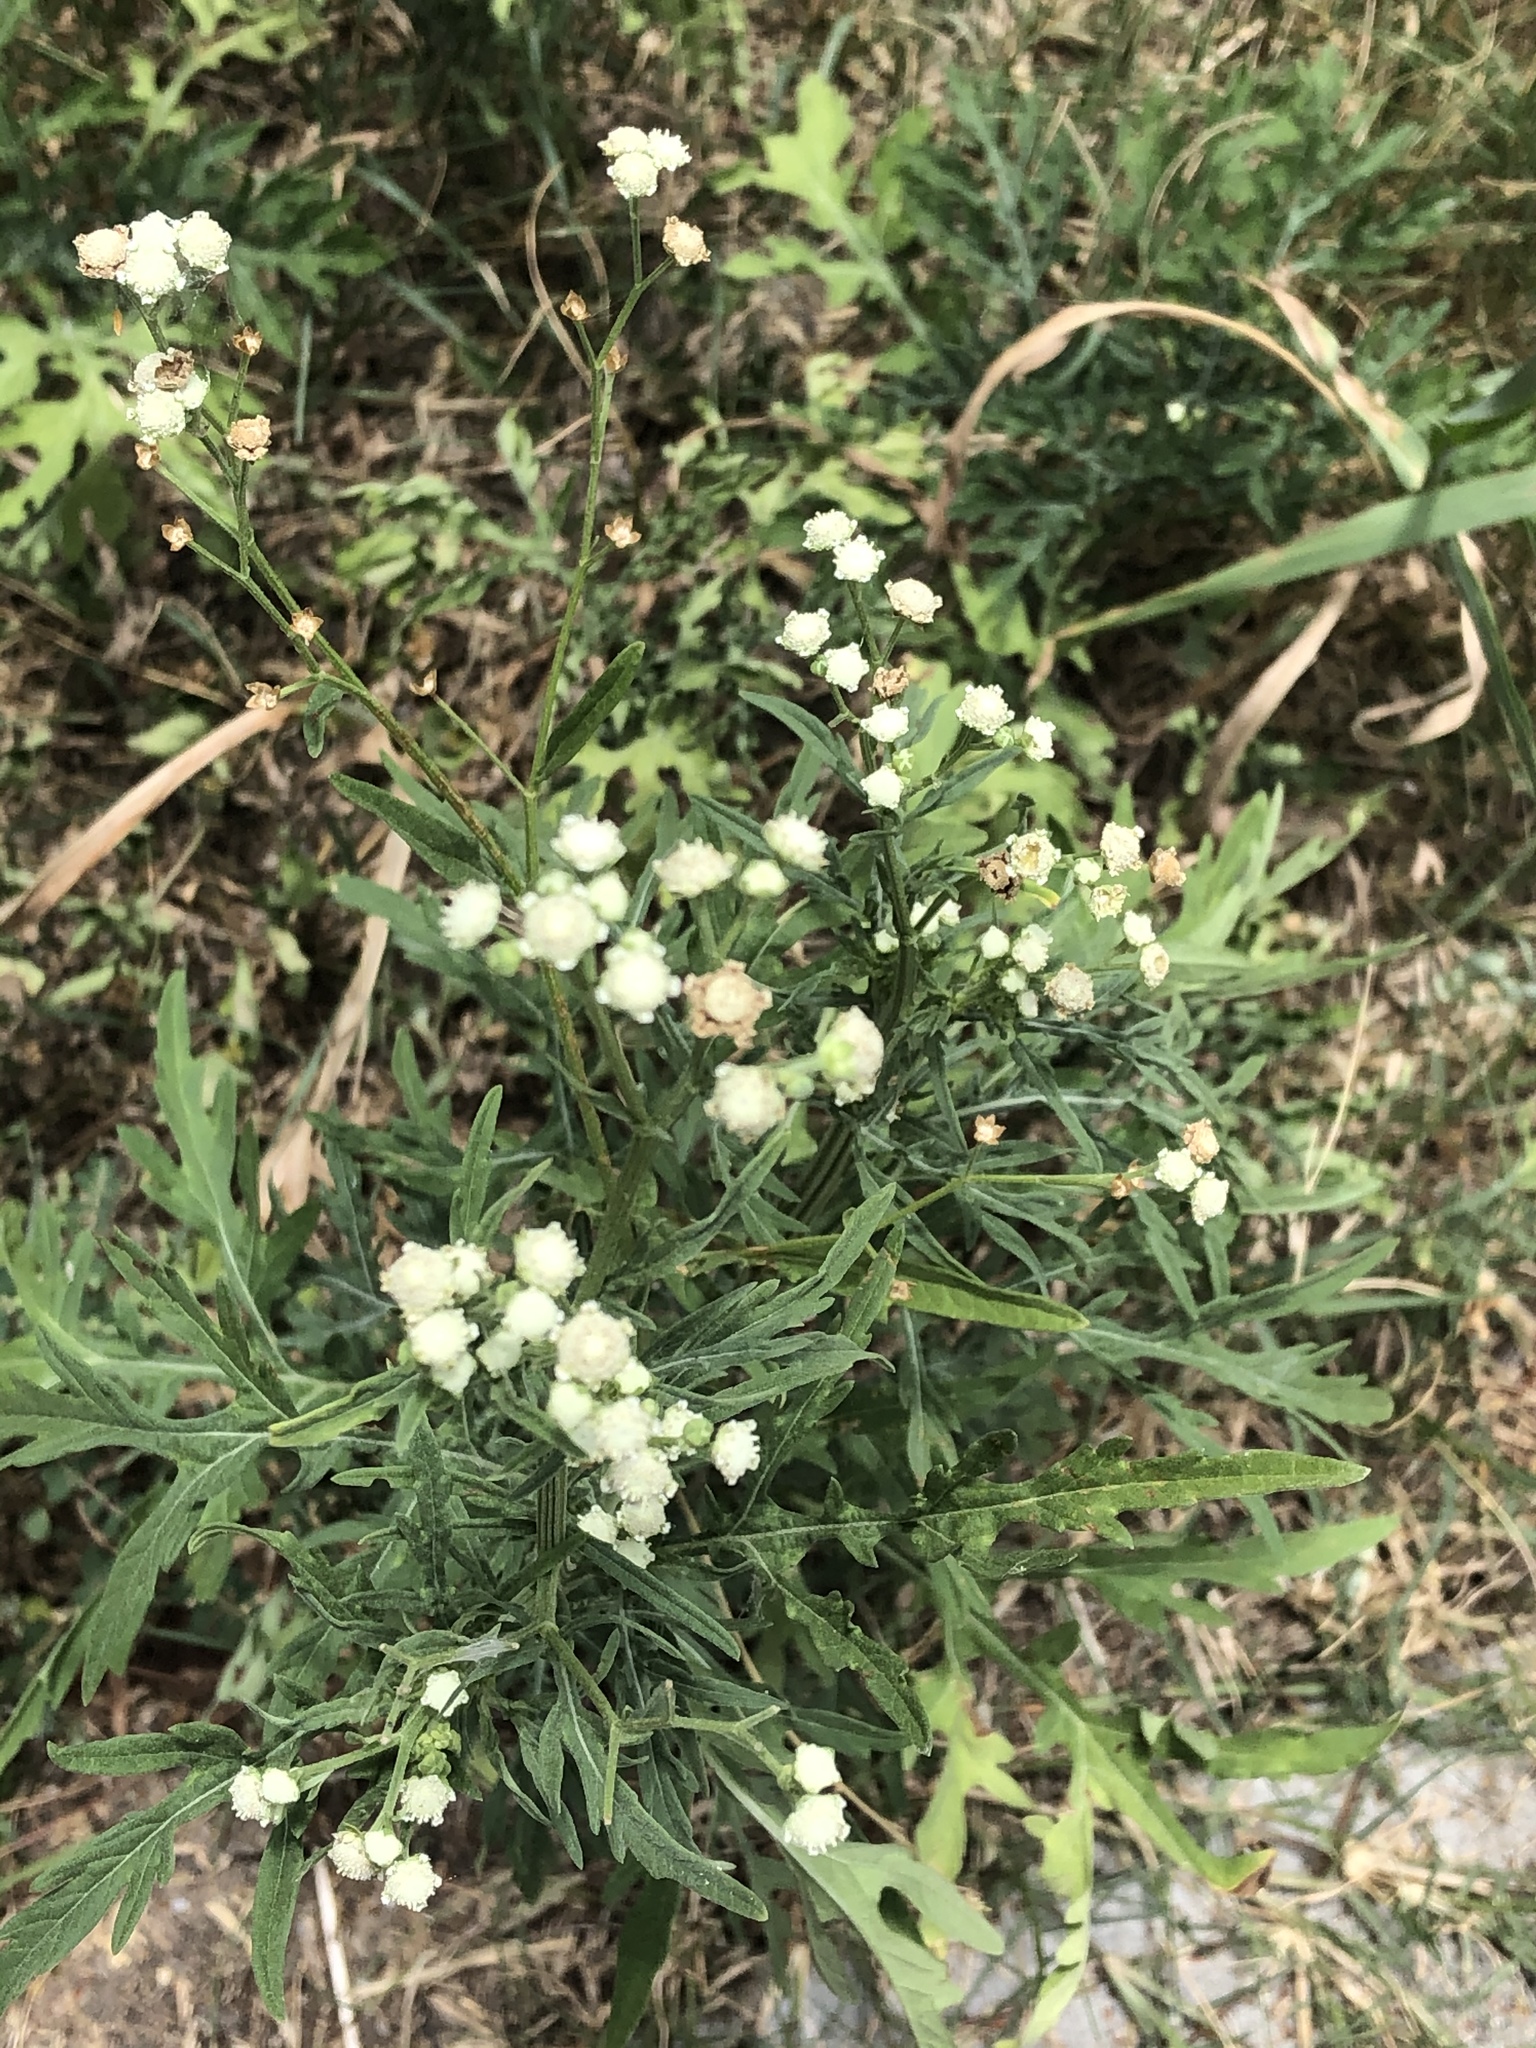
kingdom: Plantae
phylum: Tracheophyta
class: Magnoliopsida
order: Asterales
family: Asteraceae
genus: Parthenium
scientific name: Parthenium hysterophorus
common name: Santa maria feverfew
